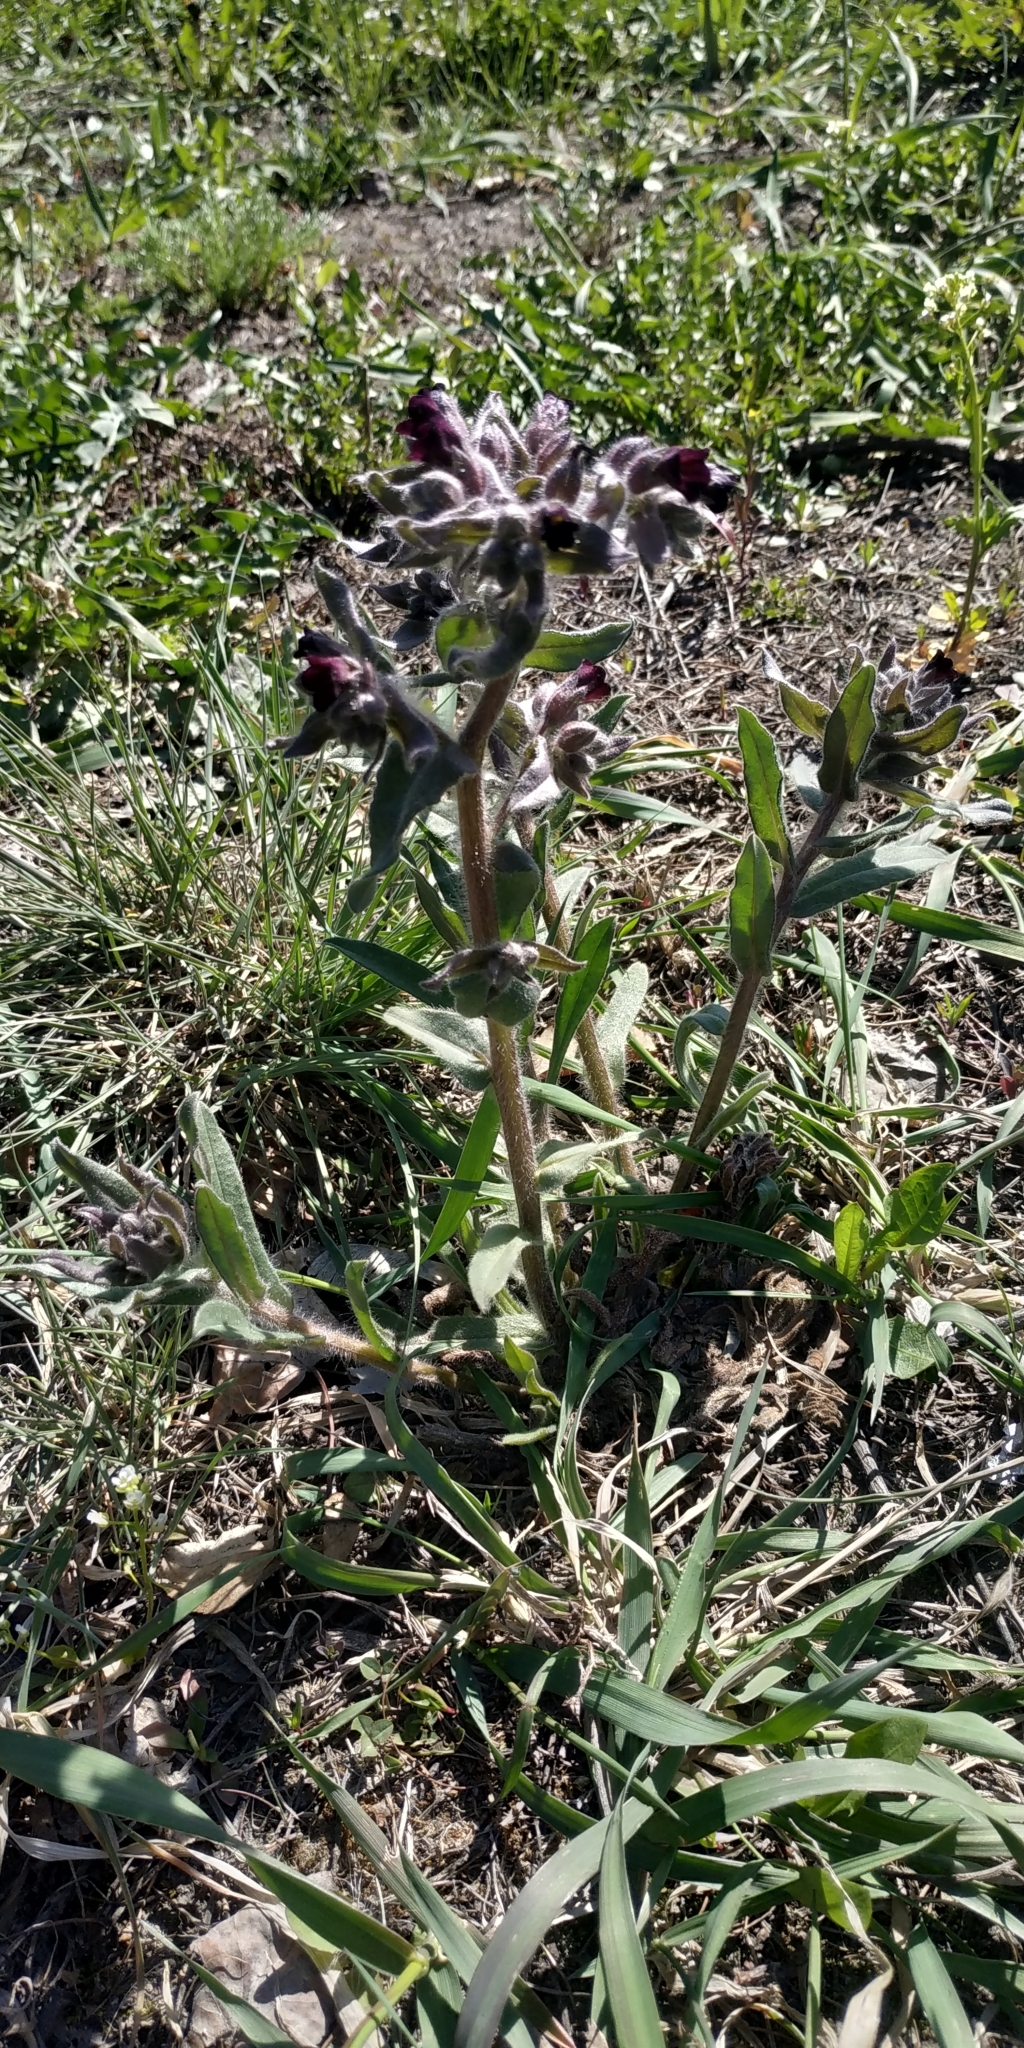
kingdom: Plantae
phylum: Tracheophyta
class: Magnoliopsida
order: Boraginales
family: Boraginaceae
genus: Nonea
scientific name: Nonea pulla
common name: Brown nonea
